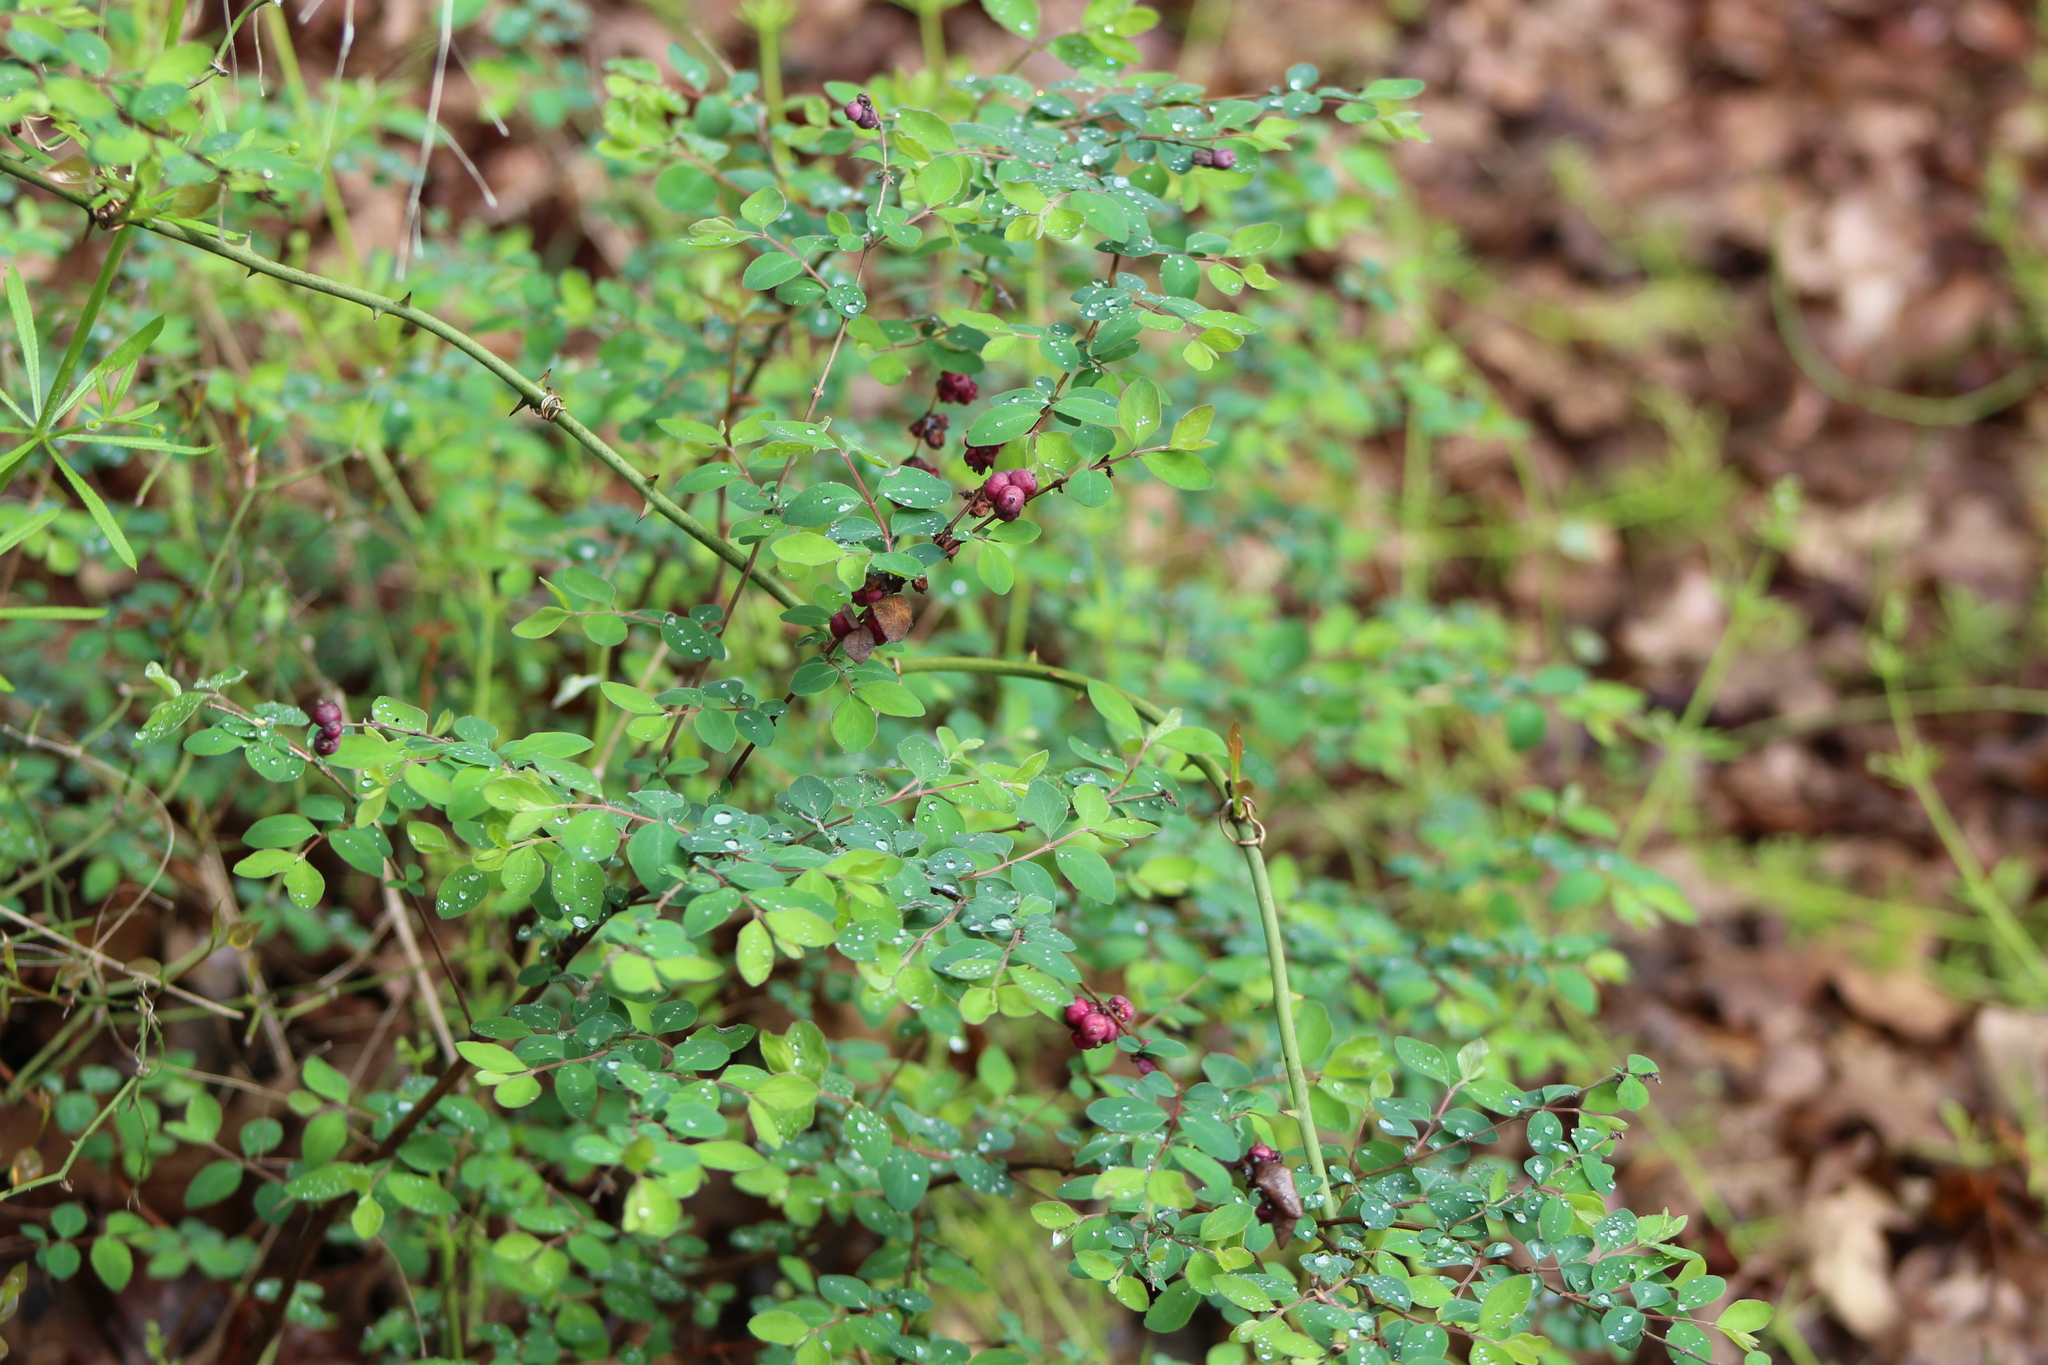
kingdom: Plantae
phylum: Tracheophyta
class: Magnoliopsida
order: Dipsacales
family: Caprifoliaceae
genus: Symphoricarpos
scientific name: Symphoricarpos orbiculatus
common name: Coralberry
